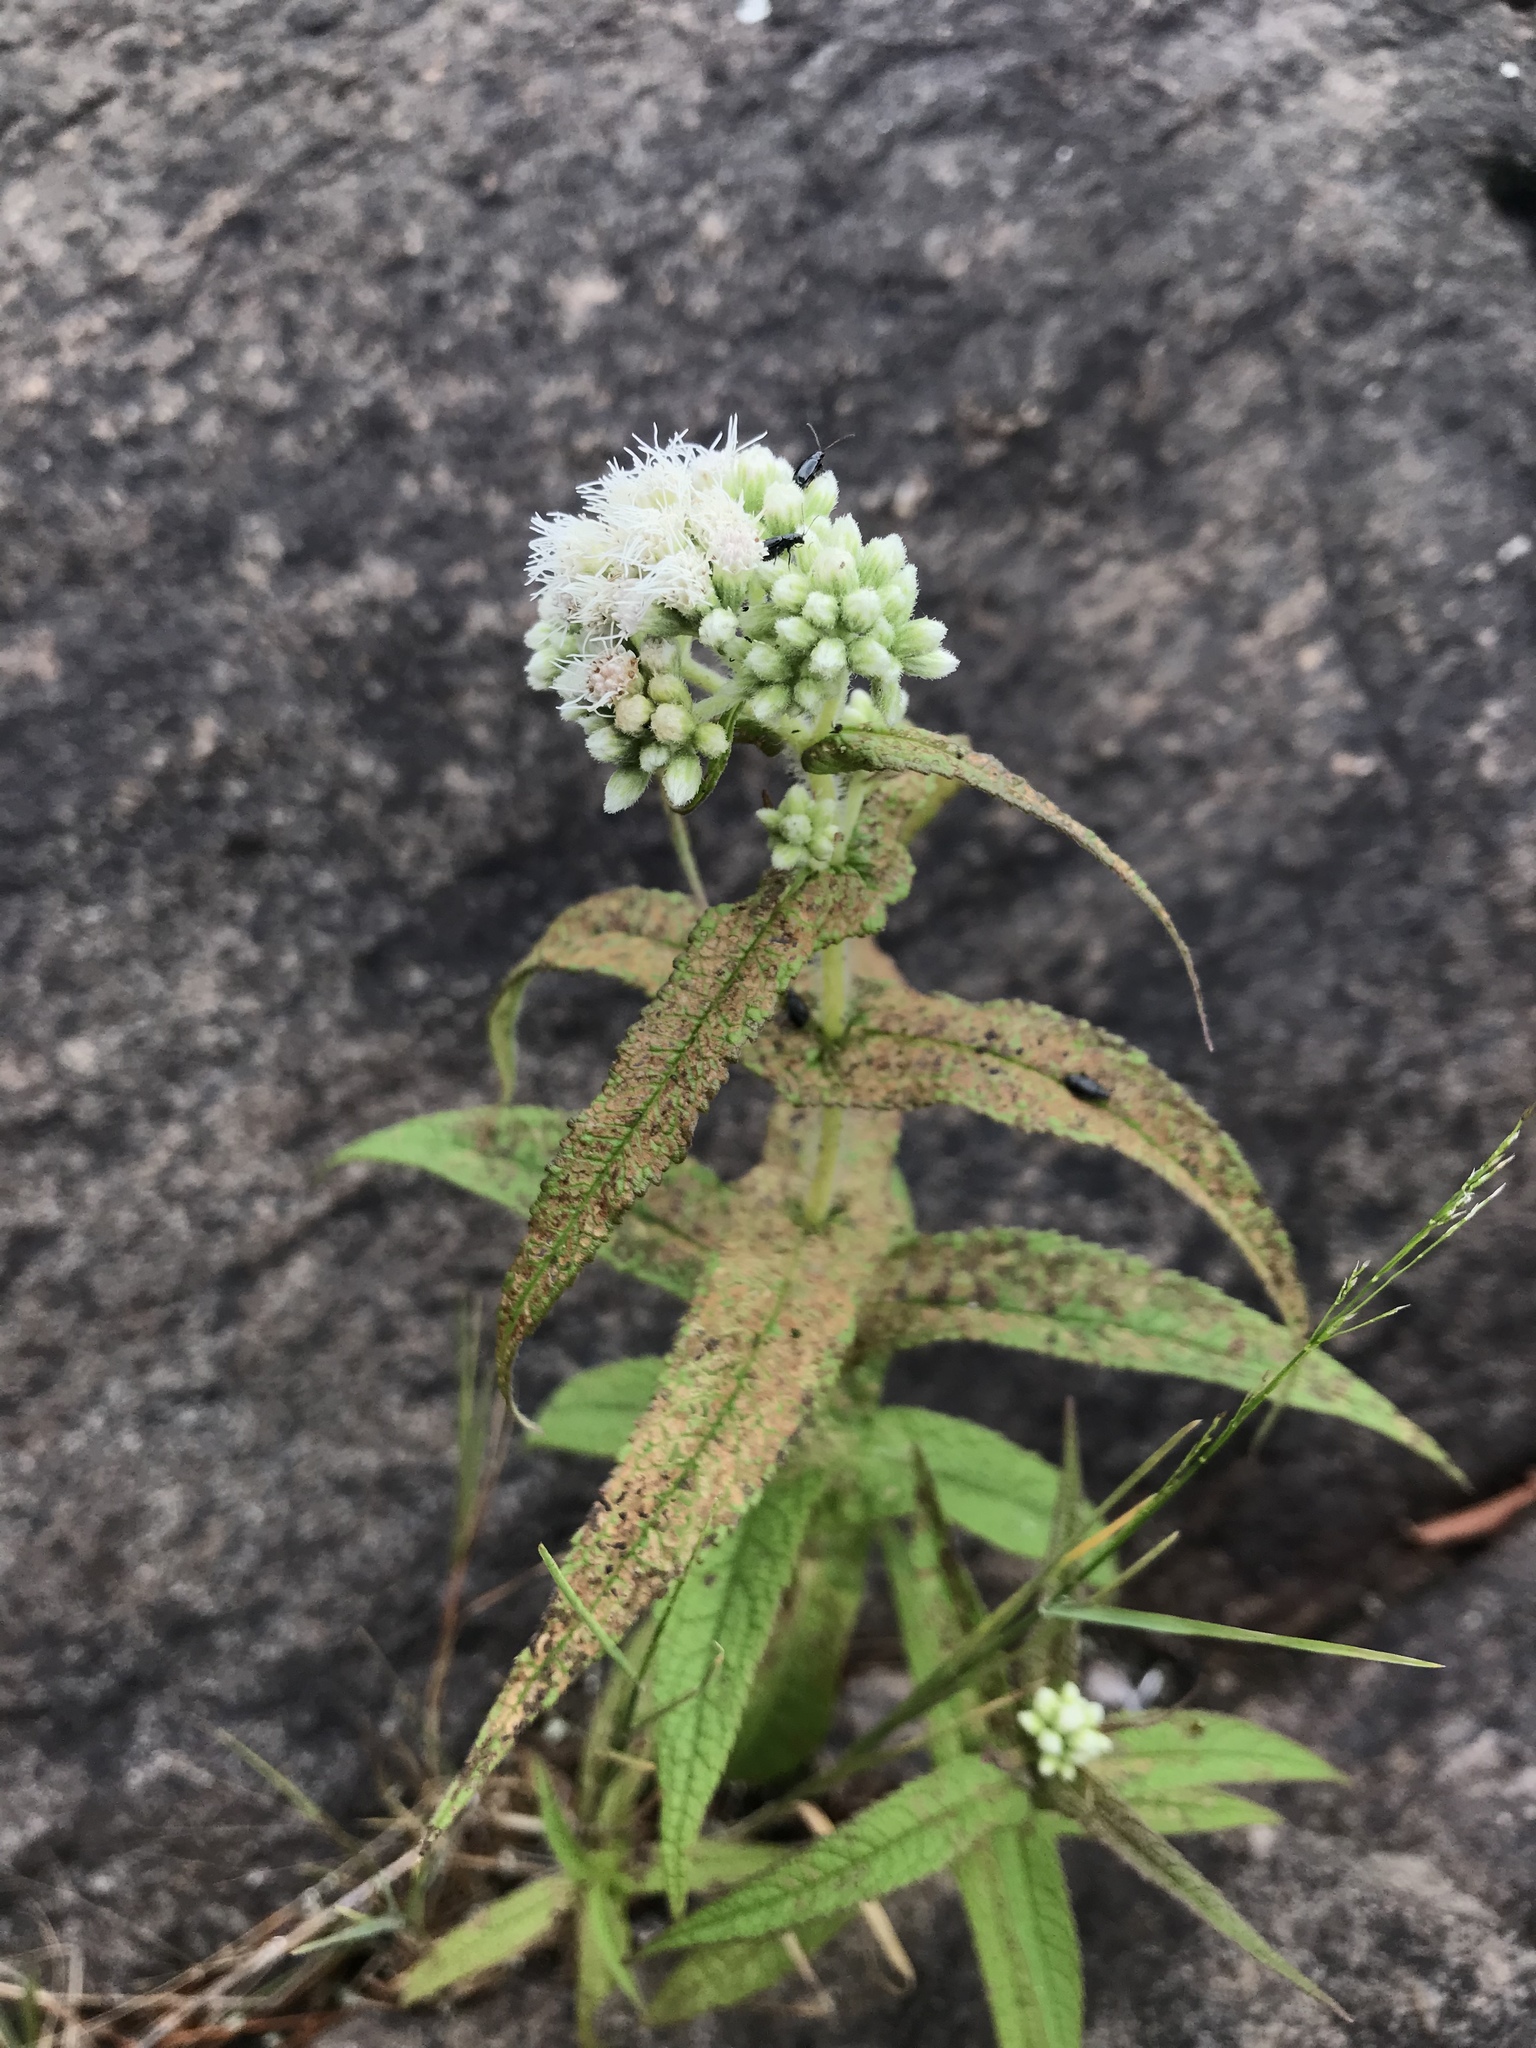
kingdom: Plantae
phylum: Tracheophyta
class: Magnoliopsida
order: Asterales
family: Asteraceae
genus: Eupatorium
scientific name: Eupatorium perfoliatum
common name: Boneset
